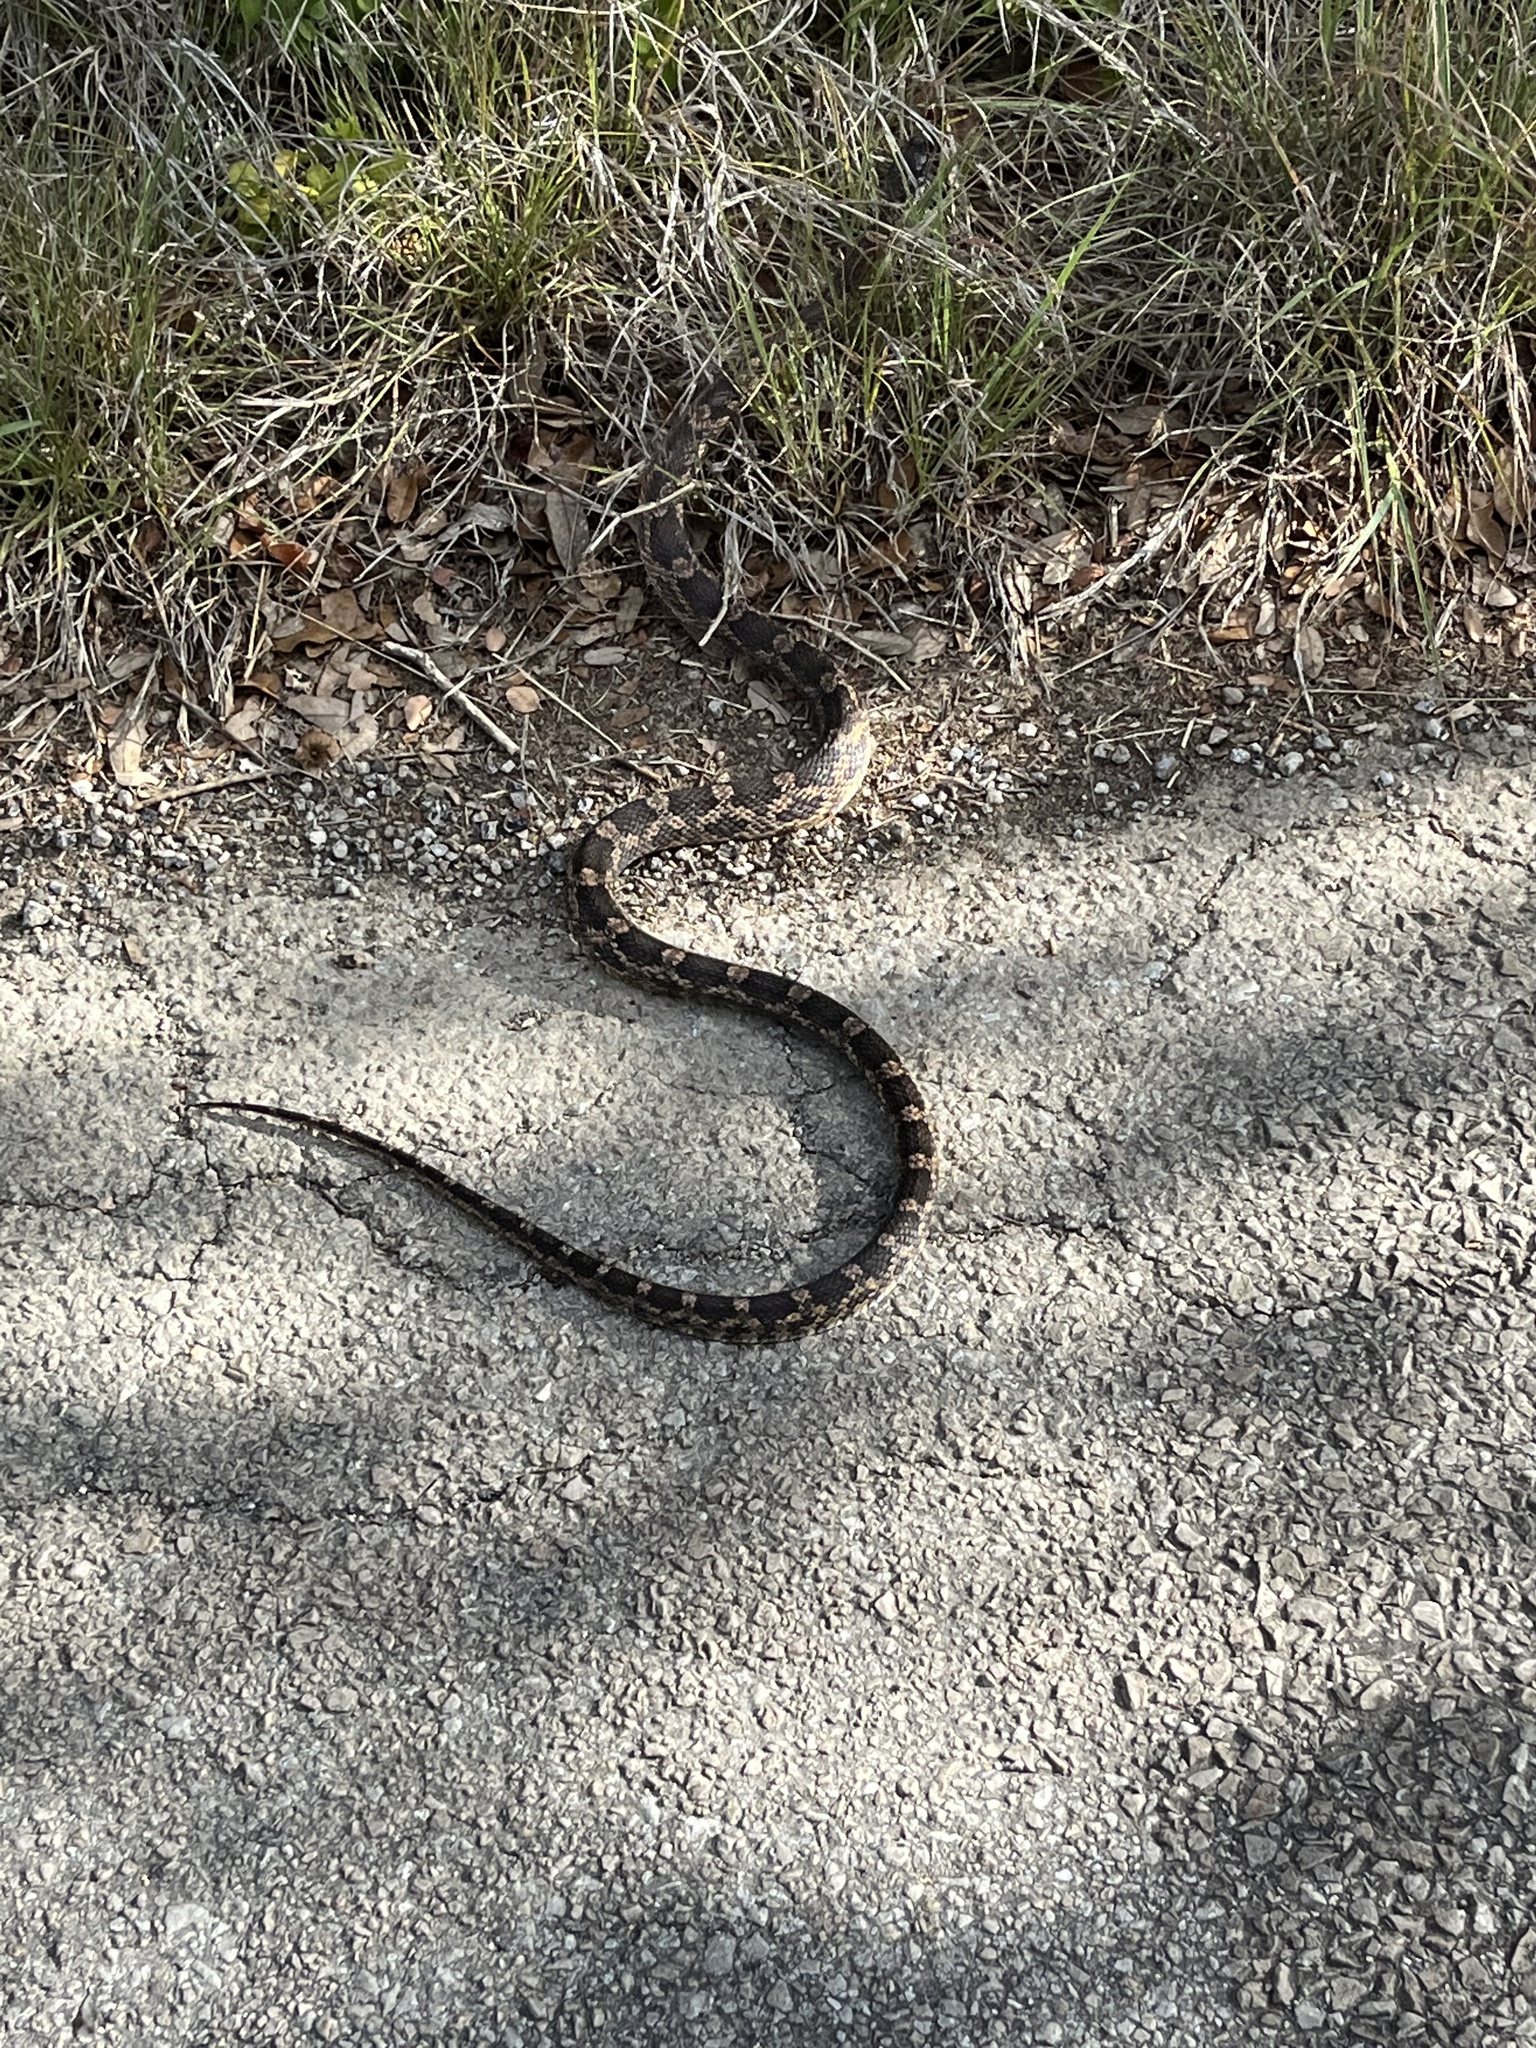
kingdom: Animalia
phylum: Chordata
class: Squamata
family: Colubridae
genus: Pantherophis
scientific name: Pantherophis obsoletus
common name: Black rat snake
